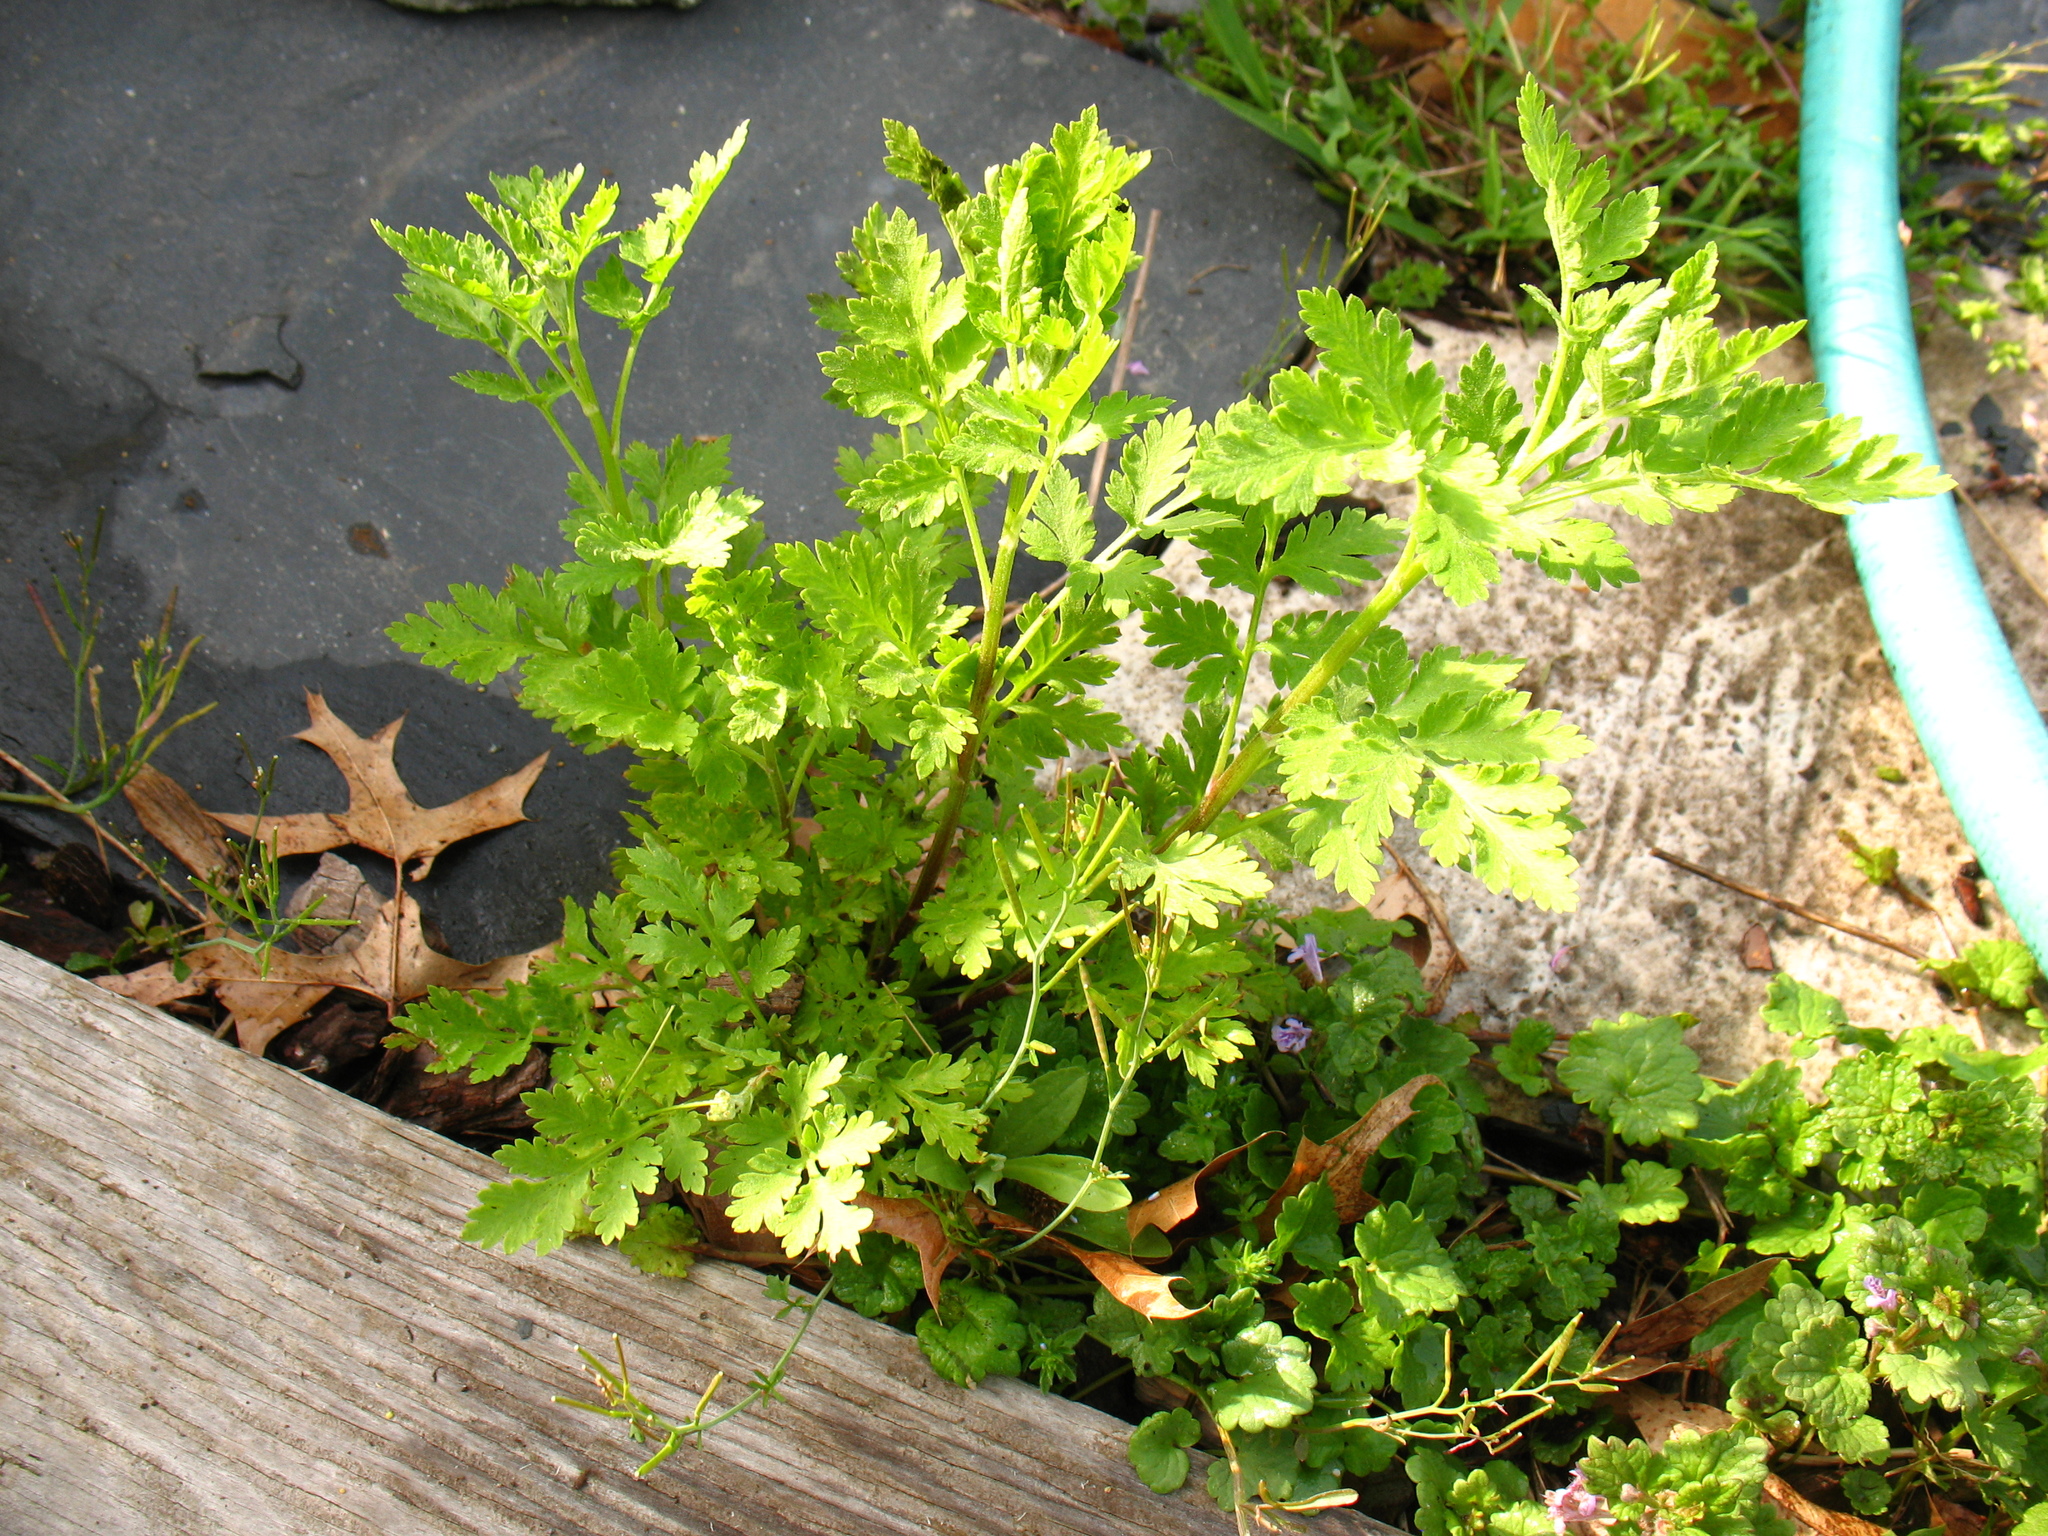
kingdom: Plantae
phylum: Tracheophyta
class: Magnoliopsida
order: Asterales
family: Asteraceae
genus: Tanacetum
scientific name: Tanacetum parthenium
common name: Feverfew
